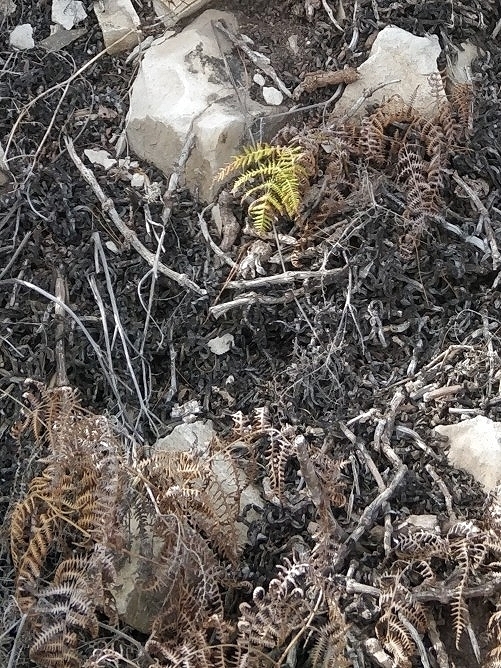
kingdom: Plantae
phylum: Tracheophyta
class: Polypodiopsida
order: Polypodiales
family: Dennstaedtiaceae
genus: Pteridium
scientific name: Pteridium aquilinum
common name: Bracken
